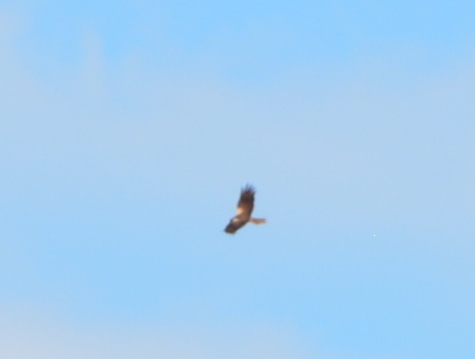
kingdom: Animalia
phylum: Chordata
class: Aves
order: Accipitriformes
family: Accipitridae
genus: Circus
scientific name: Circus aeruginosus
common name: Western marsh harrier
